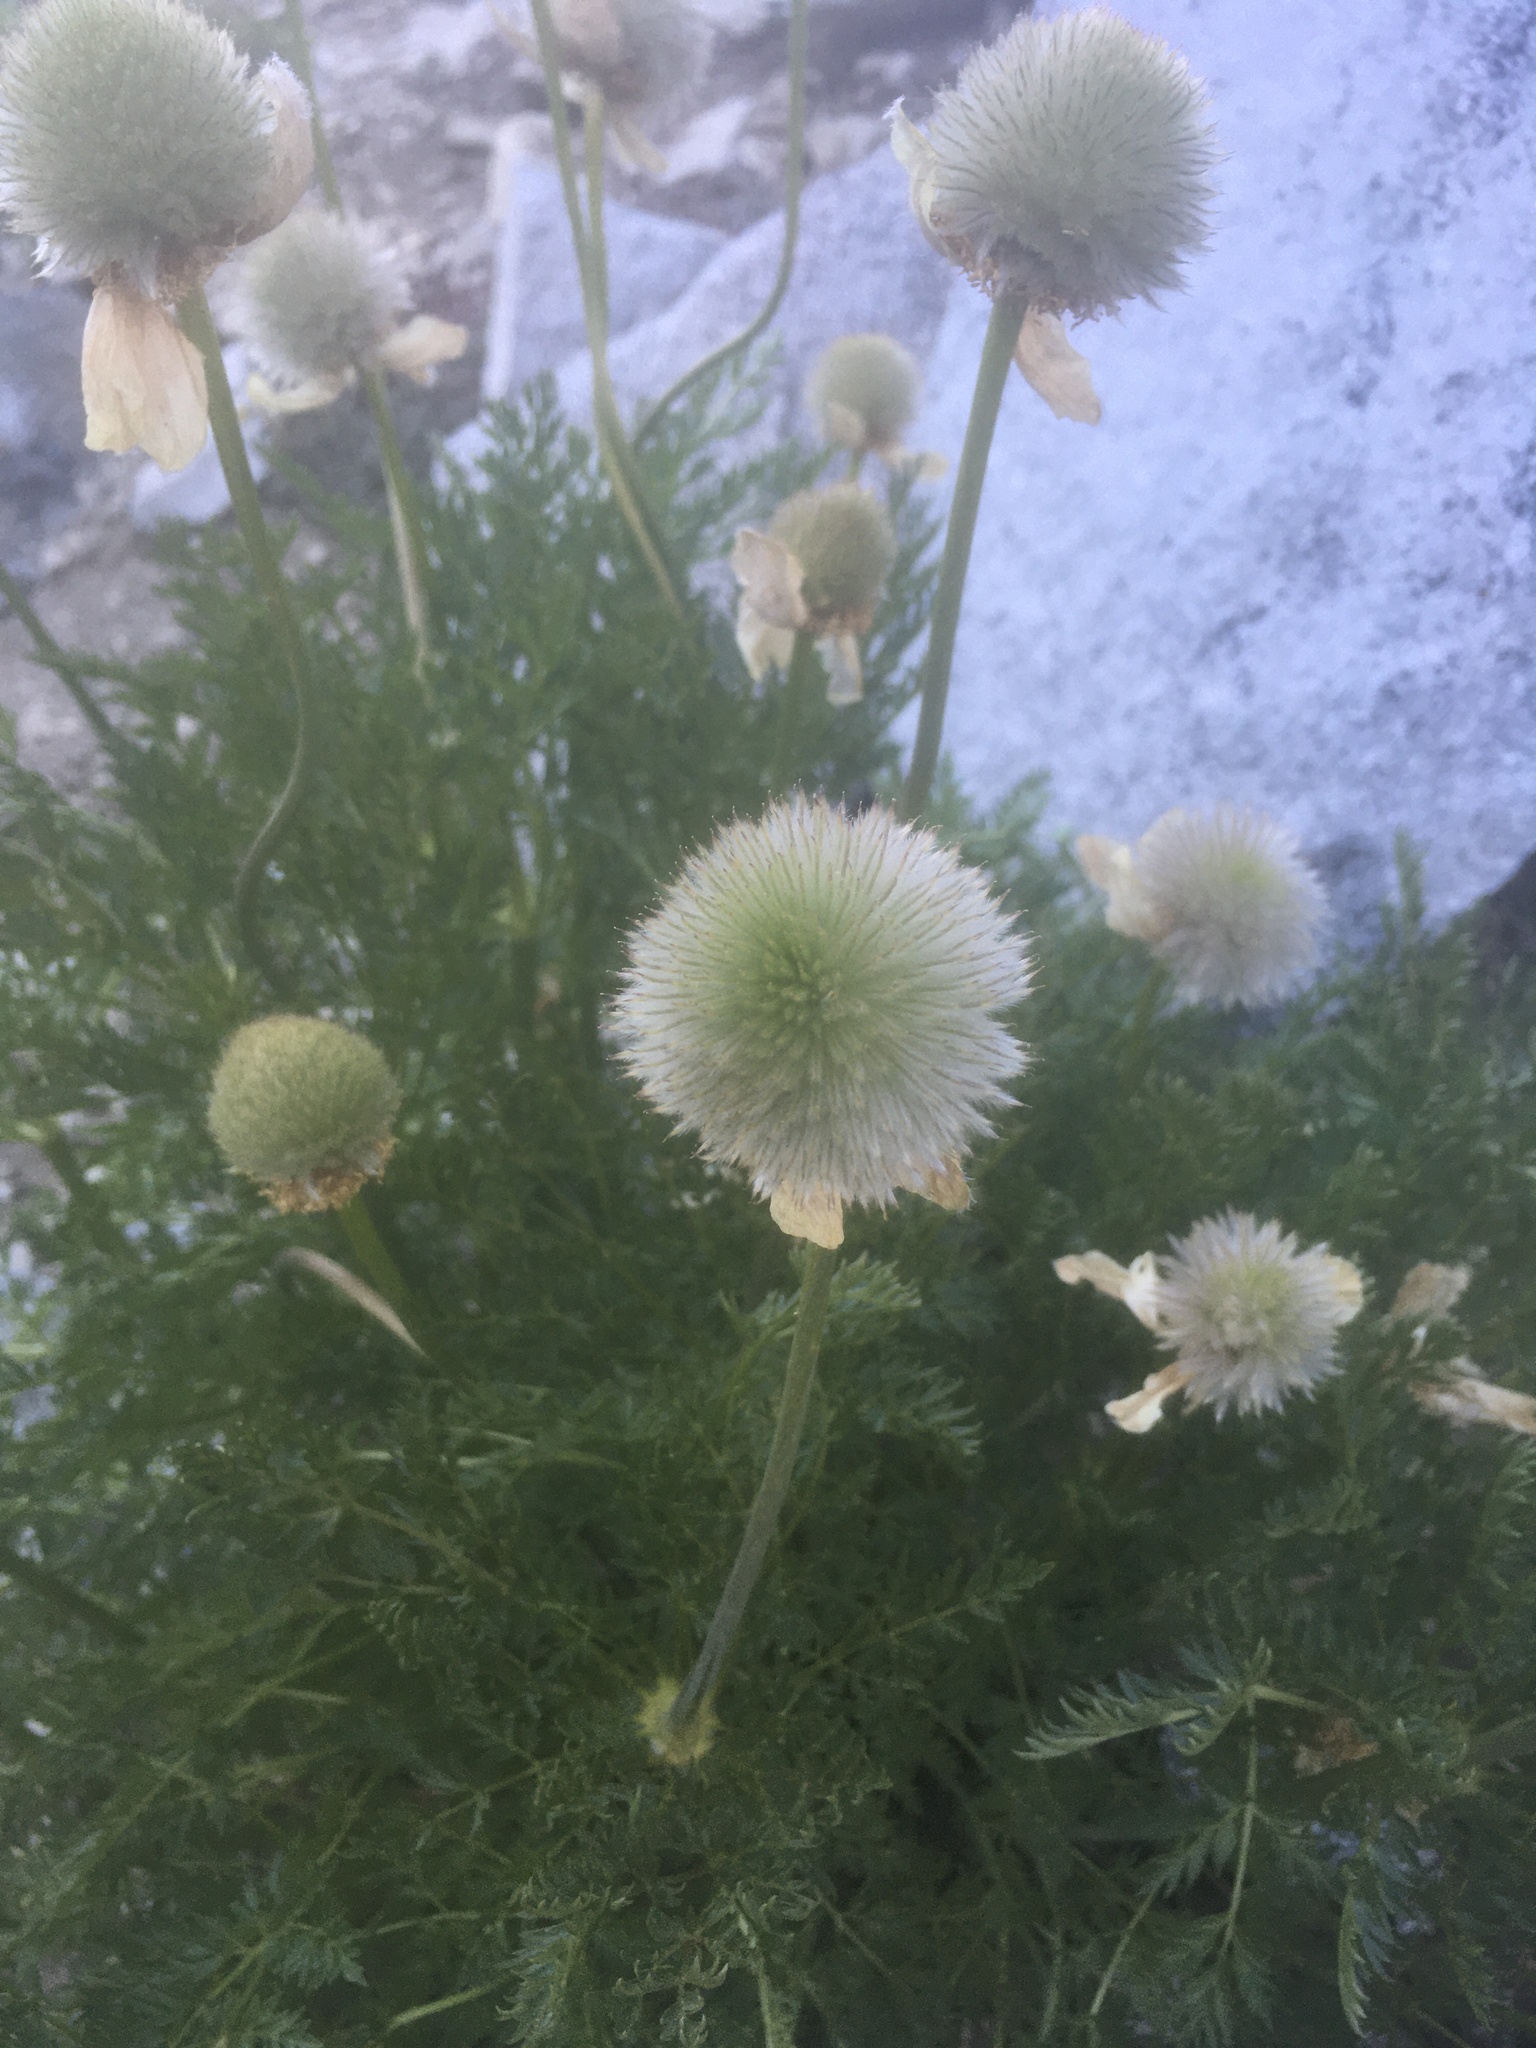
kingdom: Plantae
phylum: Tracheophyta
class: Magnoliopsida
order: Ranunculales
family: Ranunculaceae
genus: Pulsatilla
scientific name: Pulsatilla occidentalis
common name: Mountain pasqueflower
